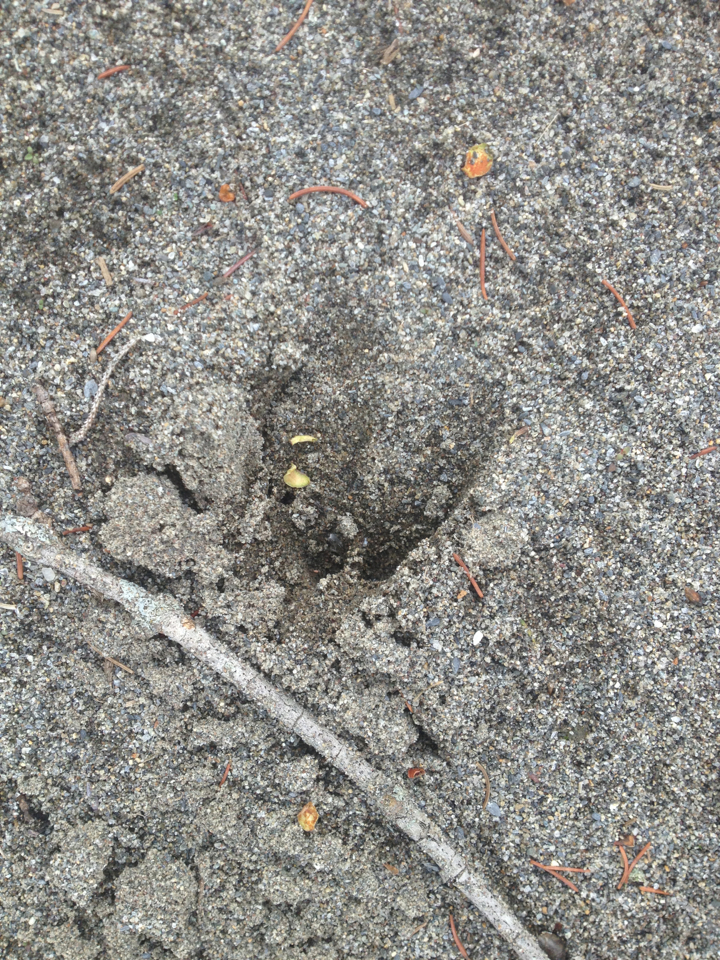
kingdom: Animalia
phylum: Chordata
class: Mammalia
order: Artiodactyla
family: Cervidae
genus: Odocoileus
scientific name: Odocoileus virginianus
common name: White-tailed deer
